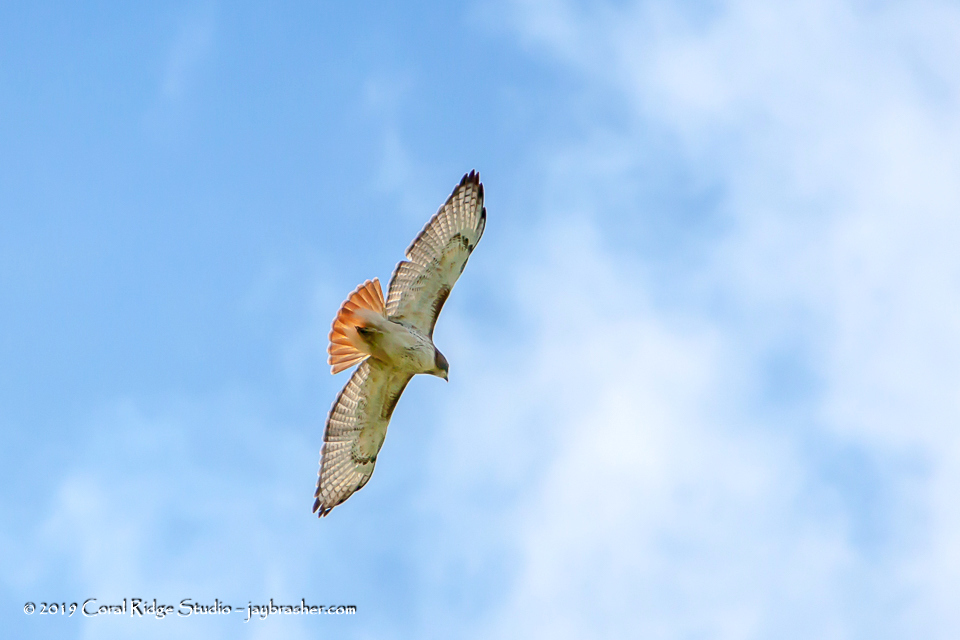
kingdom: Animalia
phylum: Chordata
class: Aves
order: Accipitriformes
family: Accipitridae
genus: Buteo
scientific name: Buteo jamaicensis
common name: Red-tailed hawk
